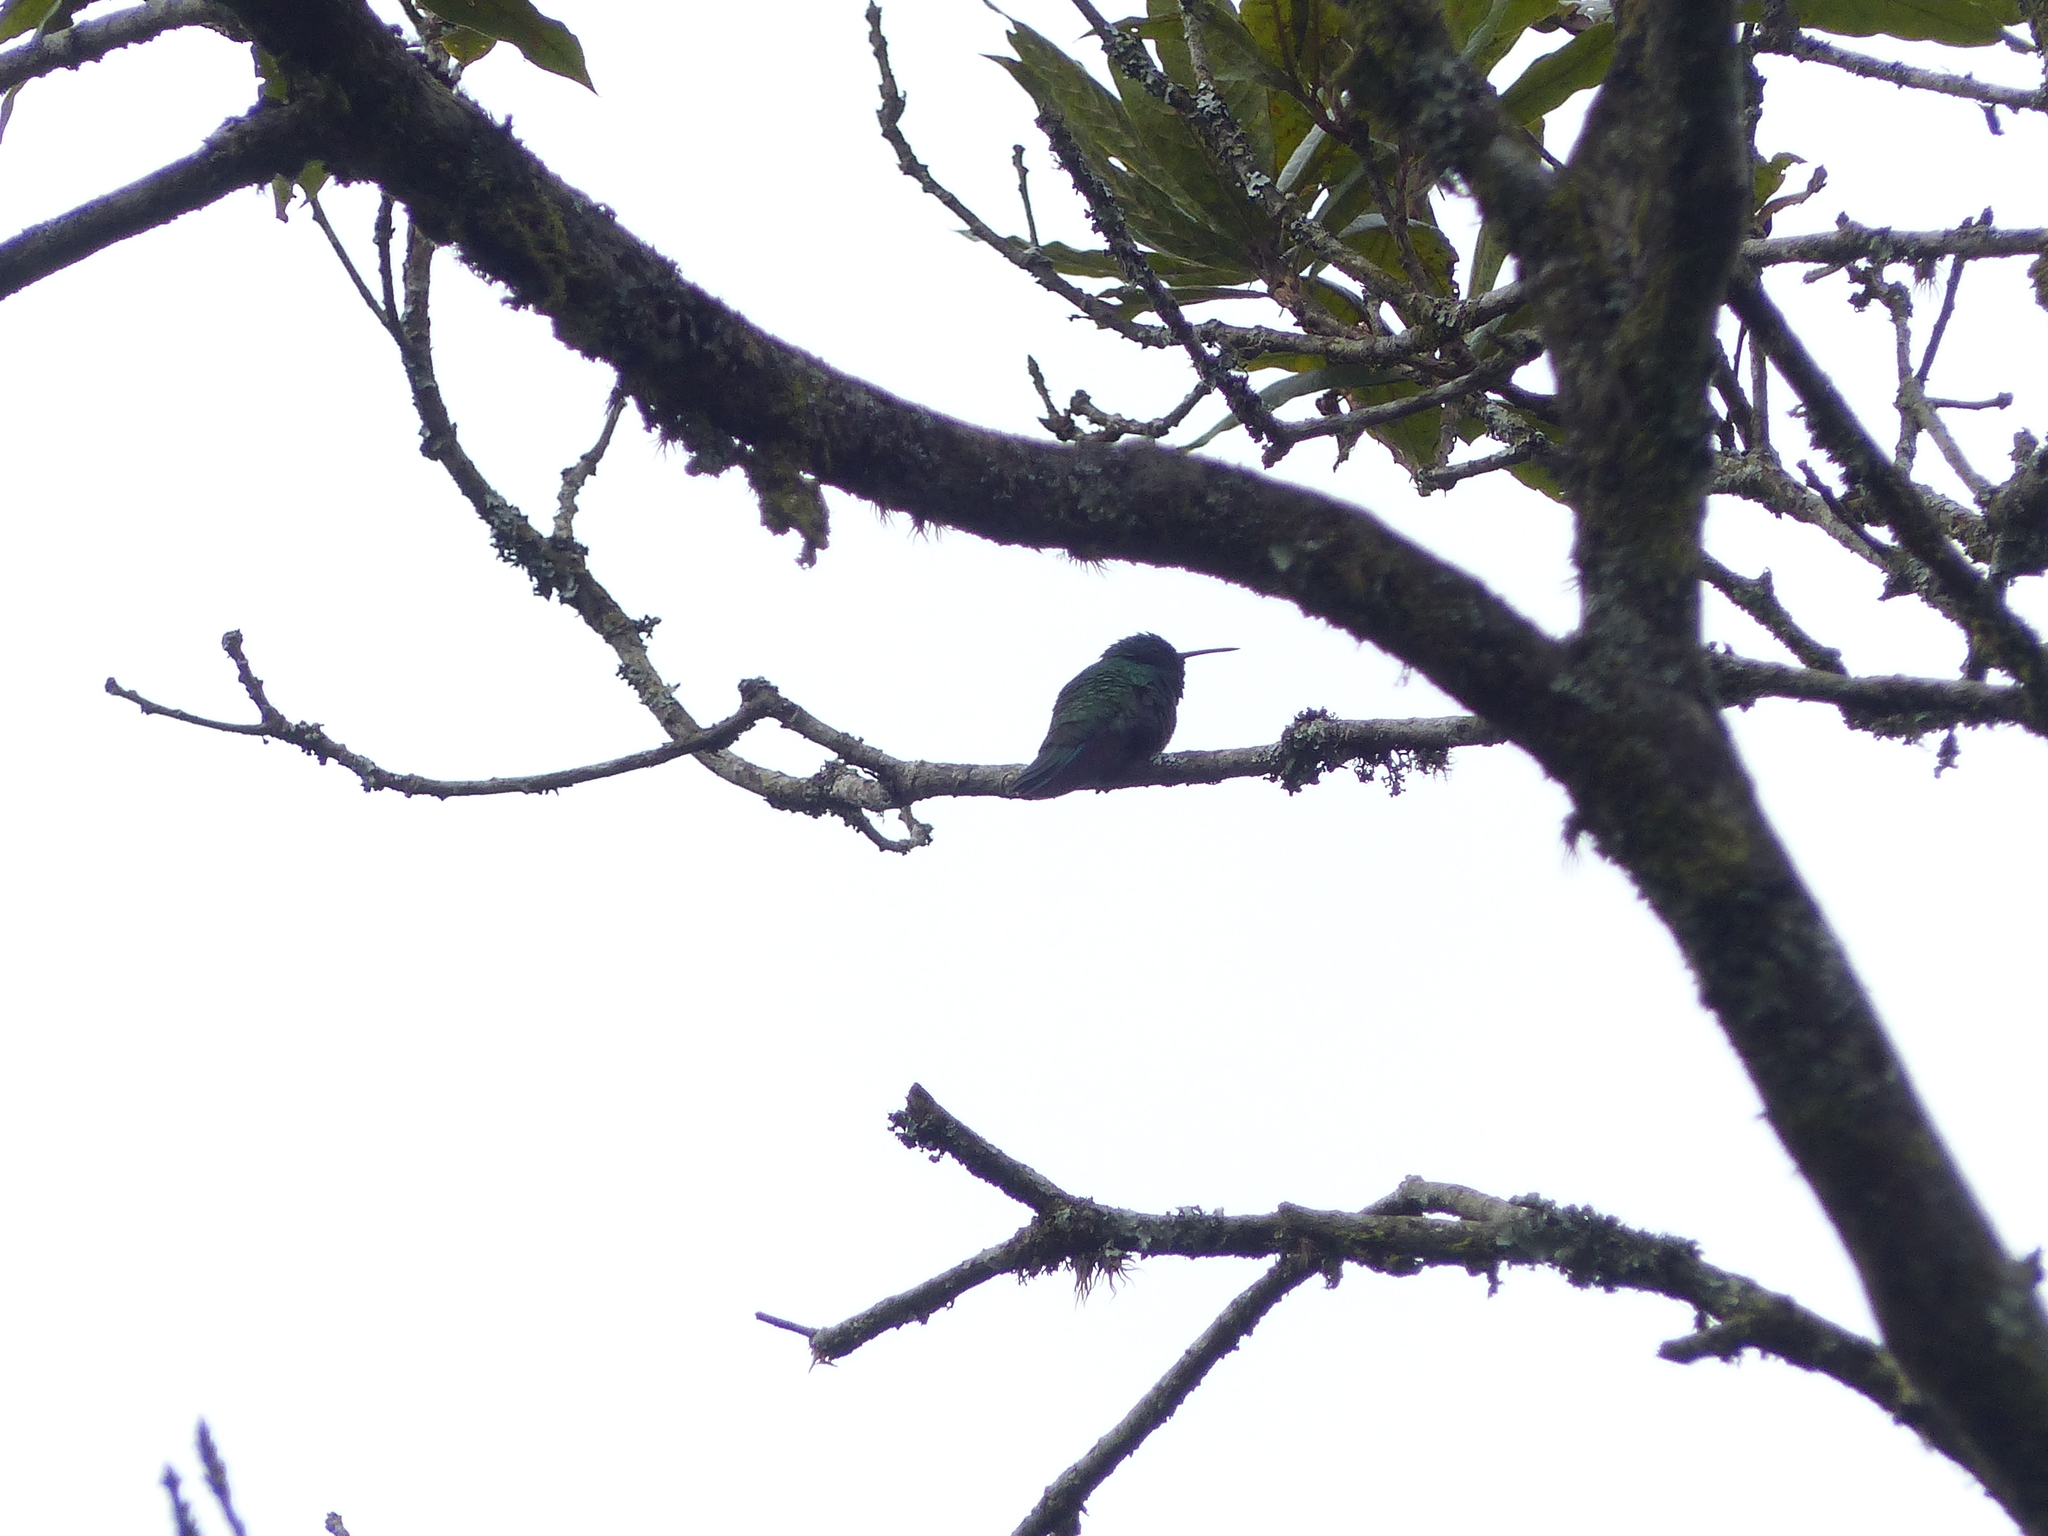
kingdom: Animalia
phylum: Chordata
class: Aves
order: Apodiformes
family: Trochilidae
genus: Colibri
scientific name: Colibri coruscans
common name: Sparkling violetear
